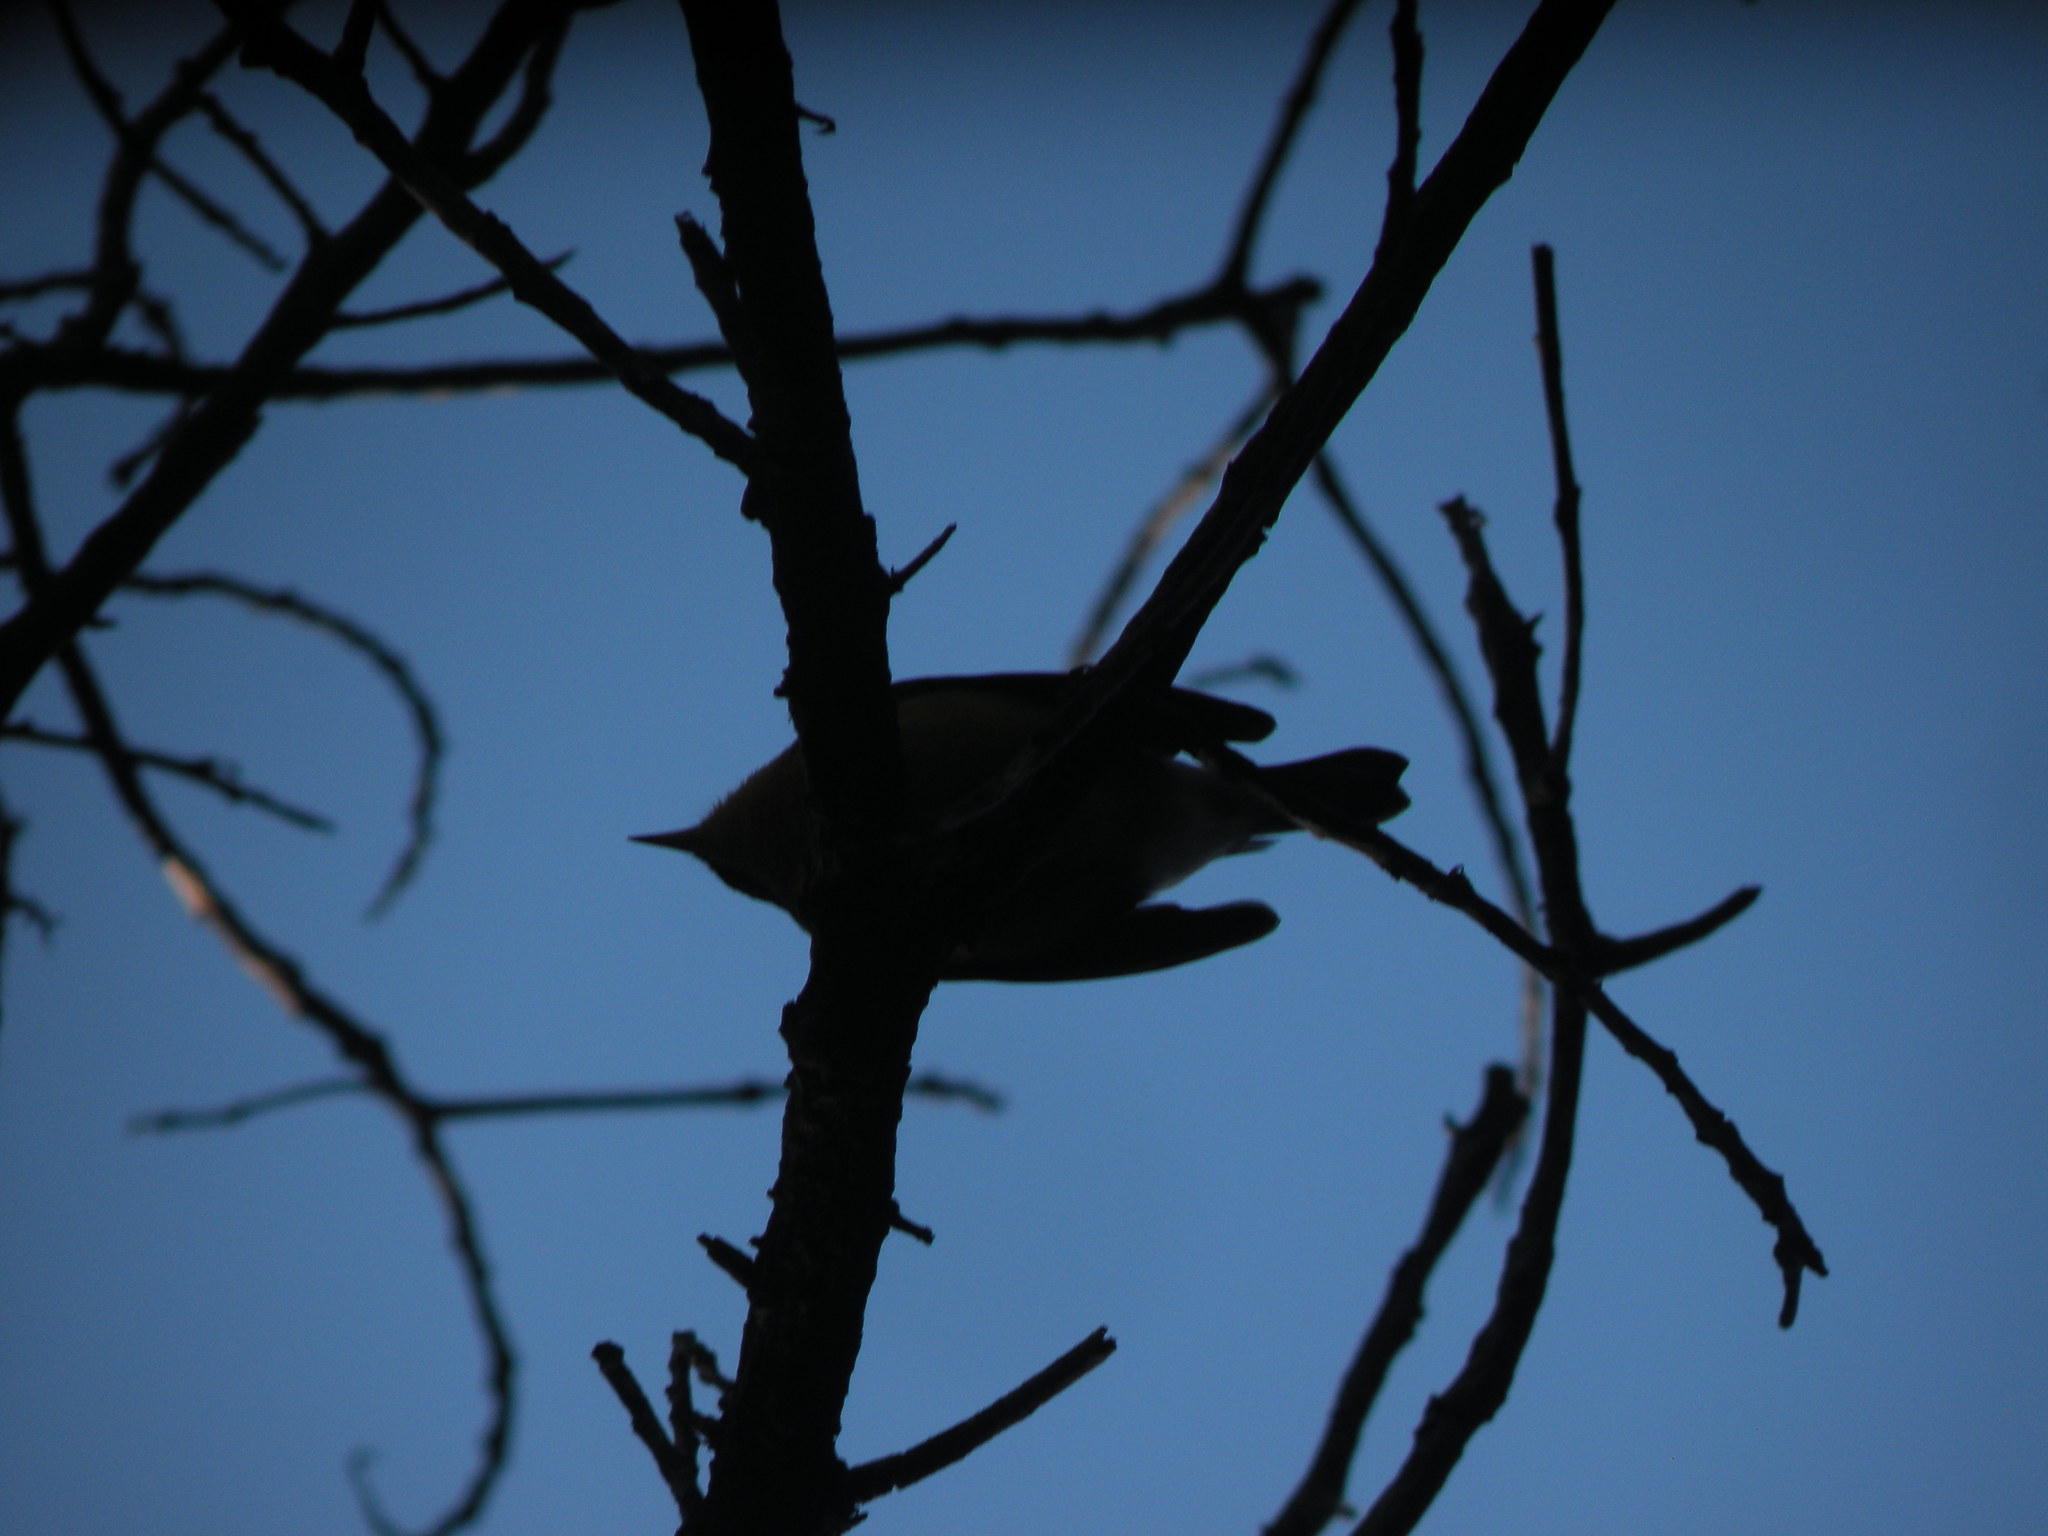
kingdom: Animalia
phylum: Chordata
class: Aves
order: Passeriformes
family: Parulidae
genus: Setophaga
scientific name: Setophaga pitiayumi
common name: Tropical parula
